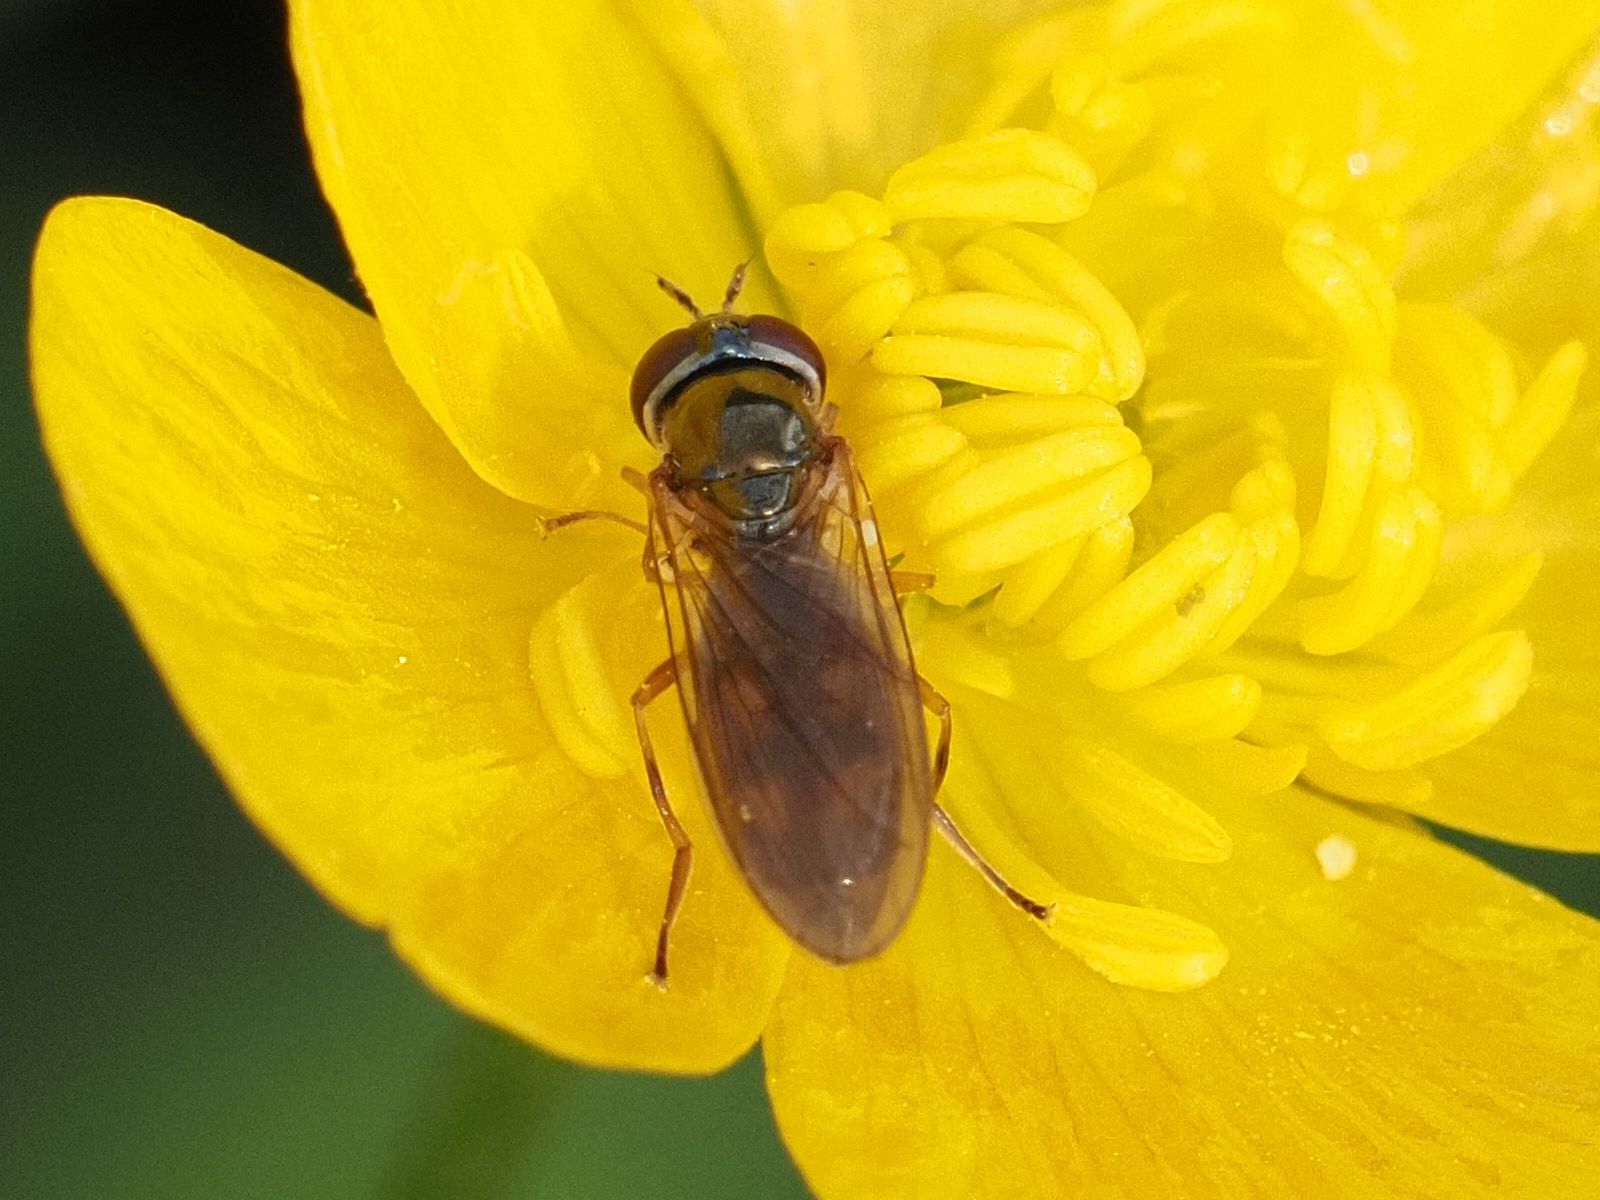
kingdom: Animalia
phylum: Arthropoda
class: Insecta
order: Diptera
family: Syrphidae
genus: Melanostoma
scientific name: Melanostoma mellina
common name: Hover fly
